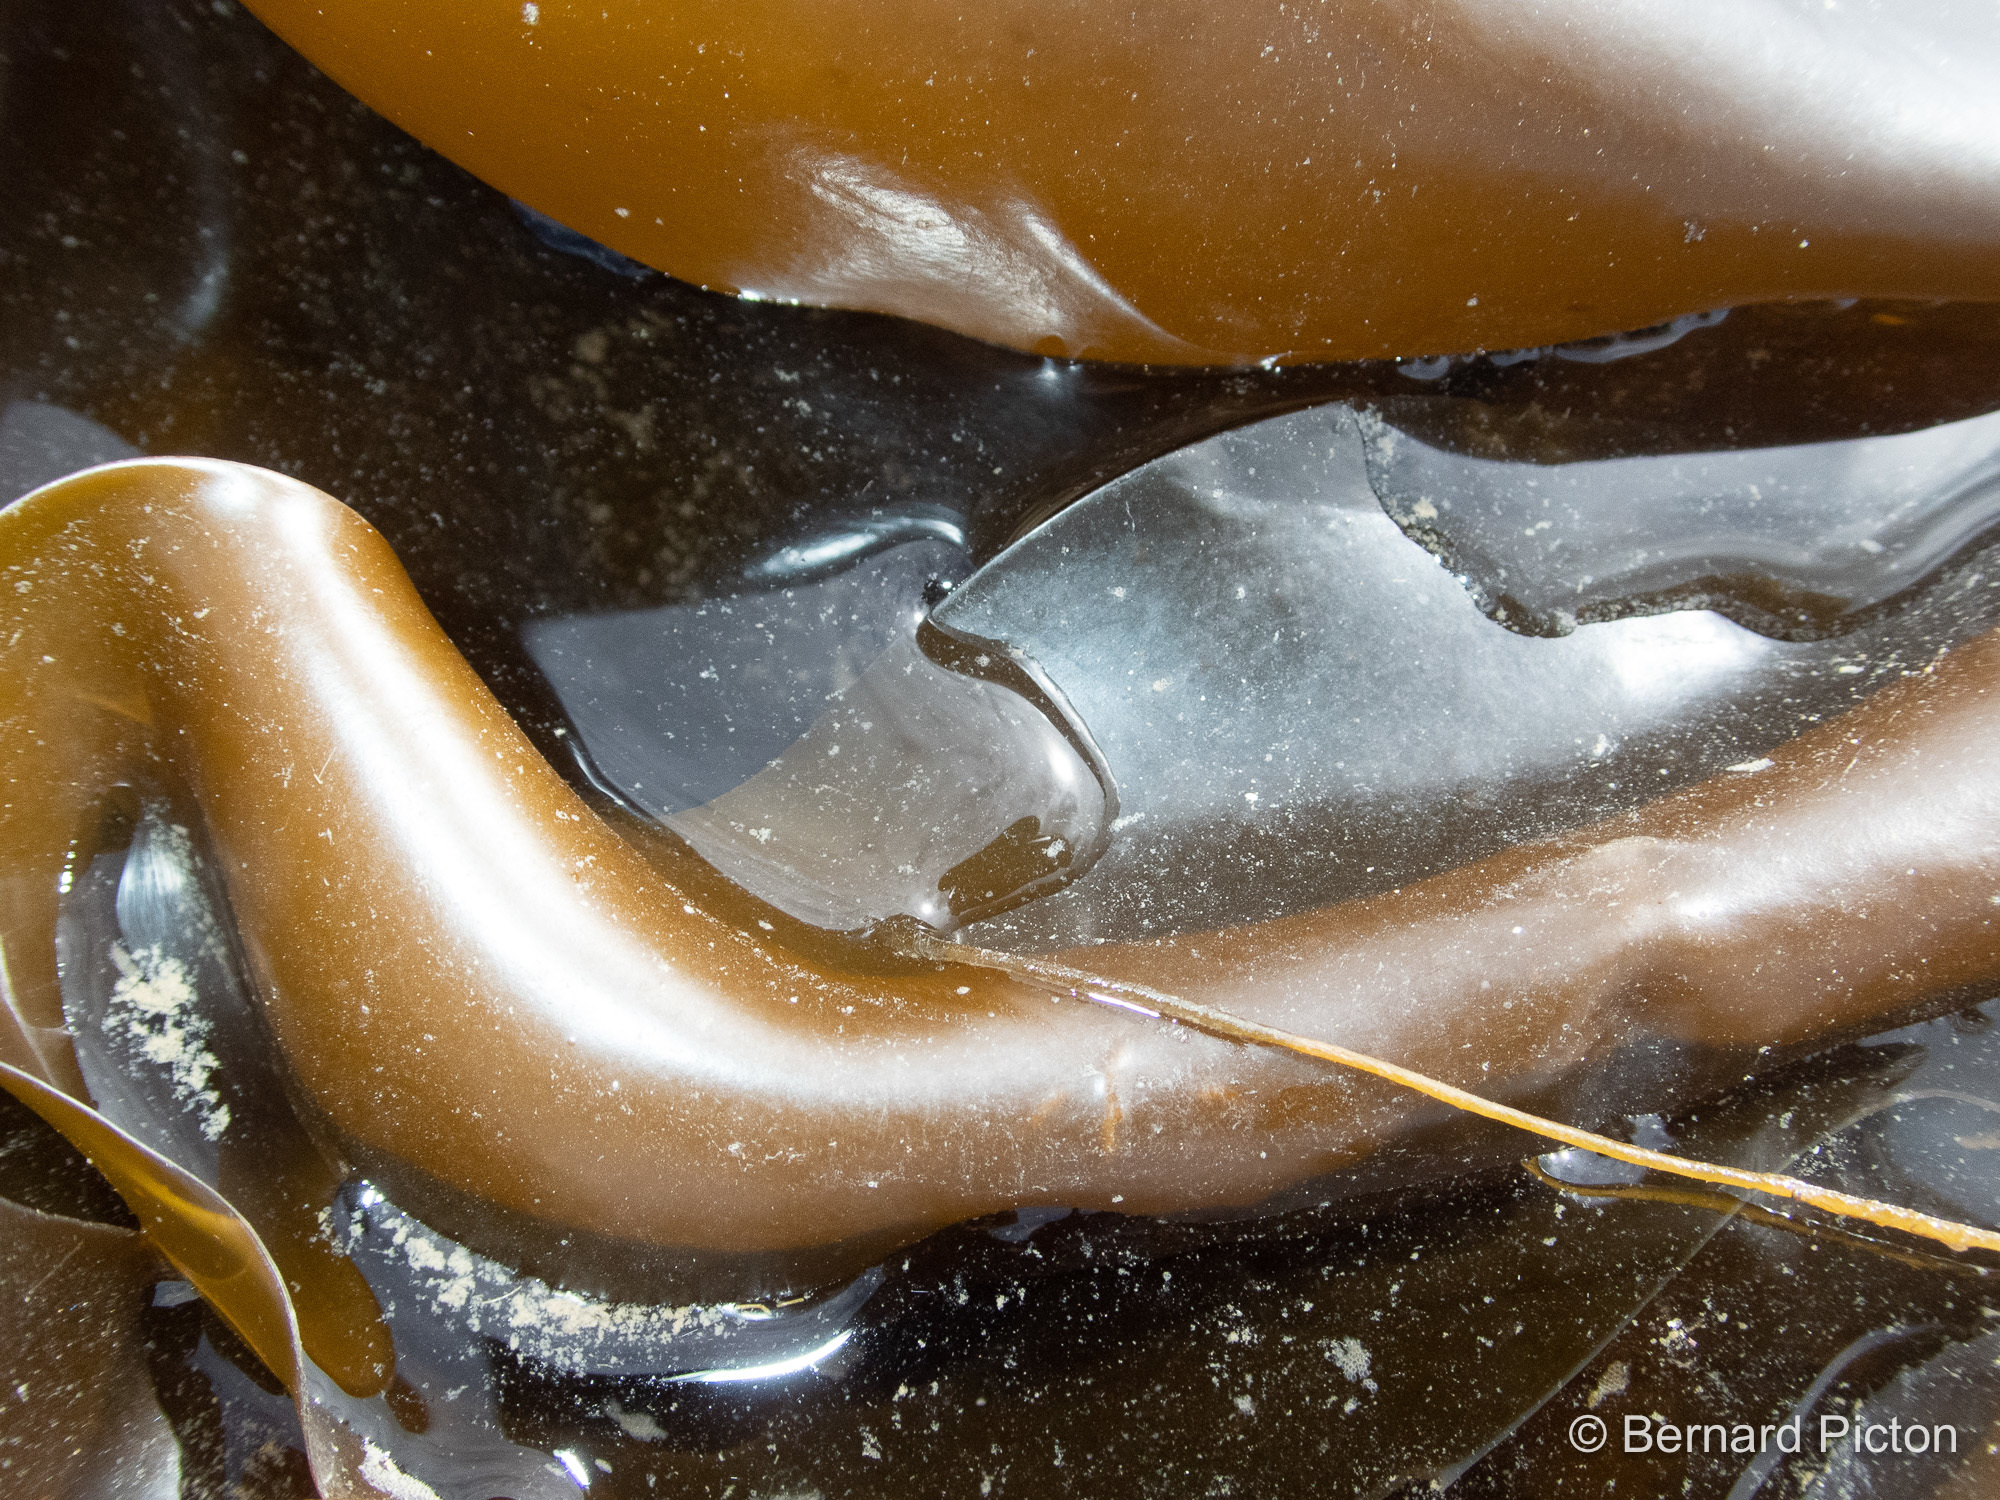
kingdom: Chromista
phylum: Ochrophyta
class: Phaeophyceae
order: Laminariales
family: Laminariaceae
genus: Laminaria
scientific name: Laminaria digitata
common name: Oarweed
